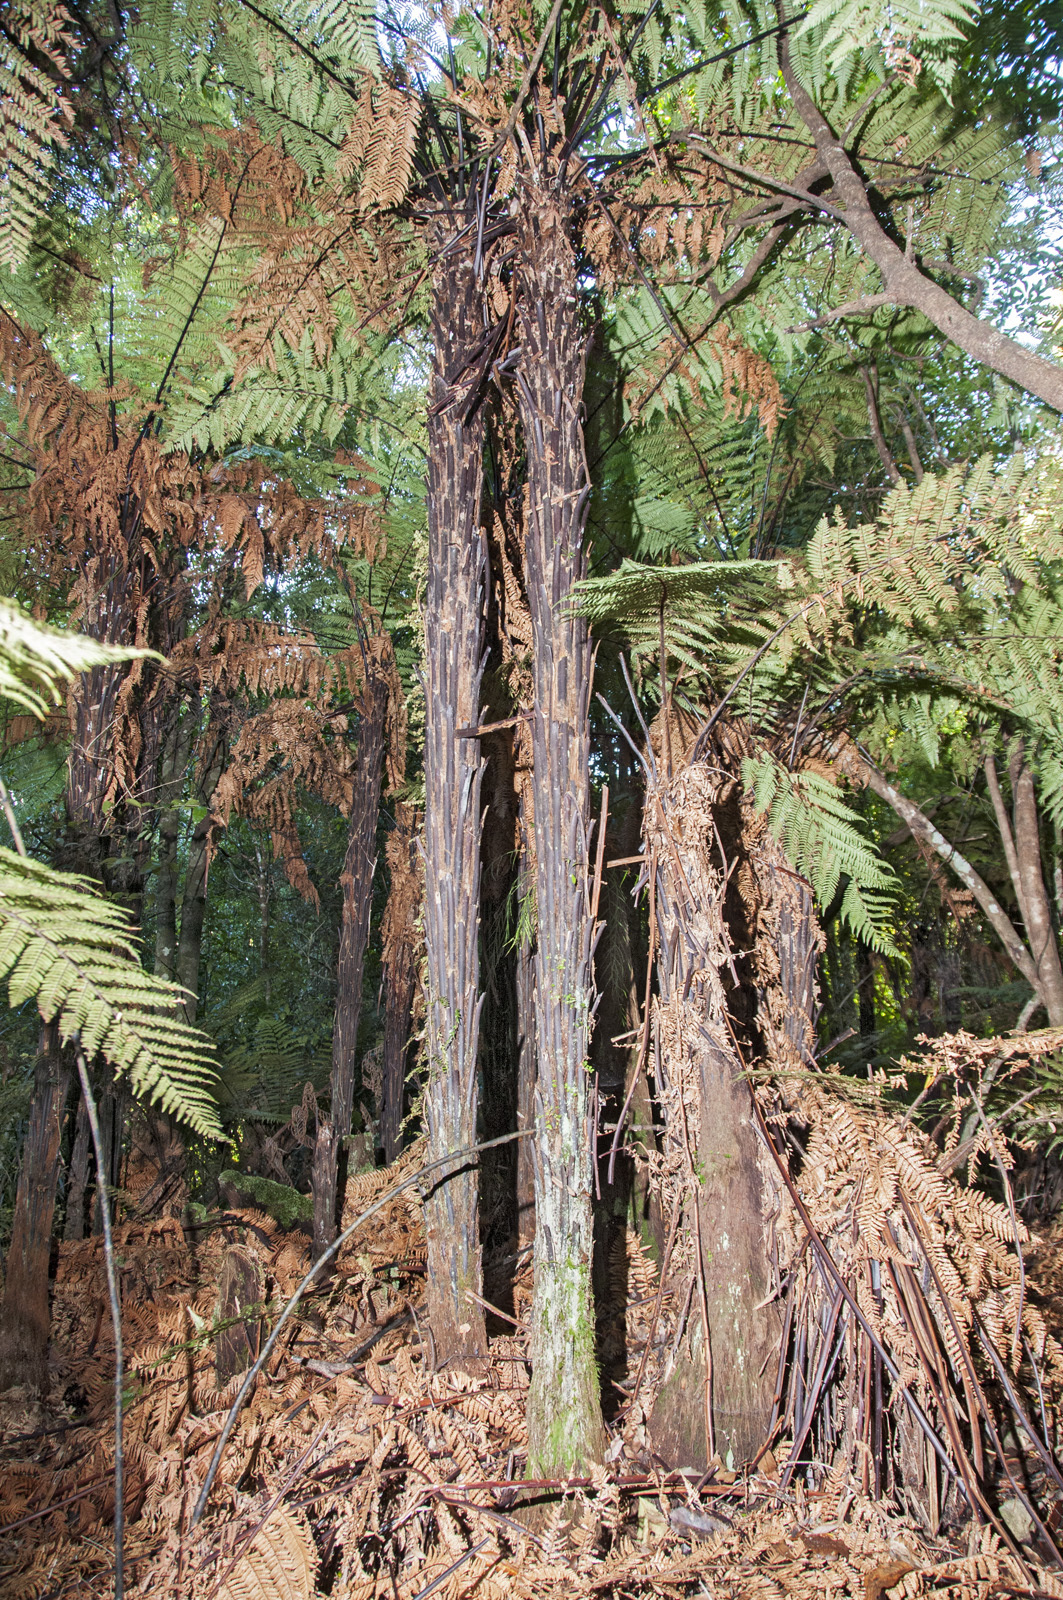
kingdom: Plantae
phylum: Tracheophyta
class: Polypodiopsida
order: Cyatheales
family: Dicksoniaceae
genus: Dicksonia
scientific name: Dicksonia squarrosa
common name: Hard treefern
